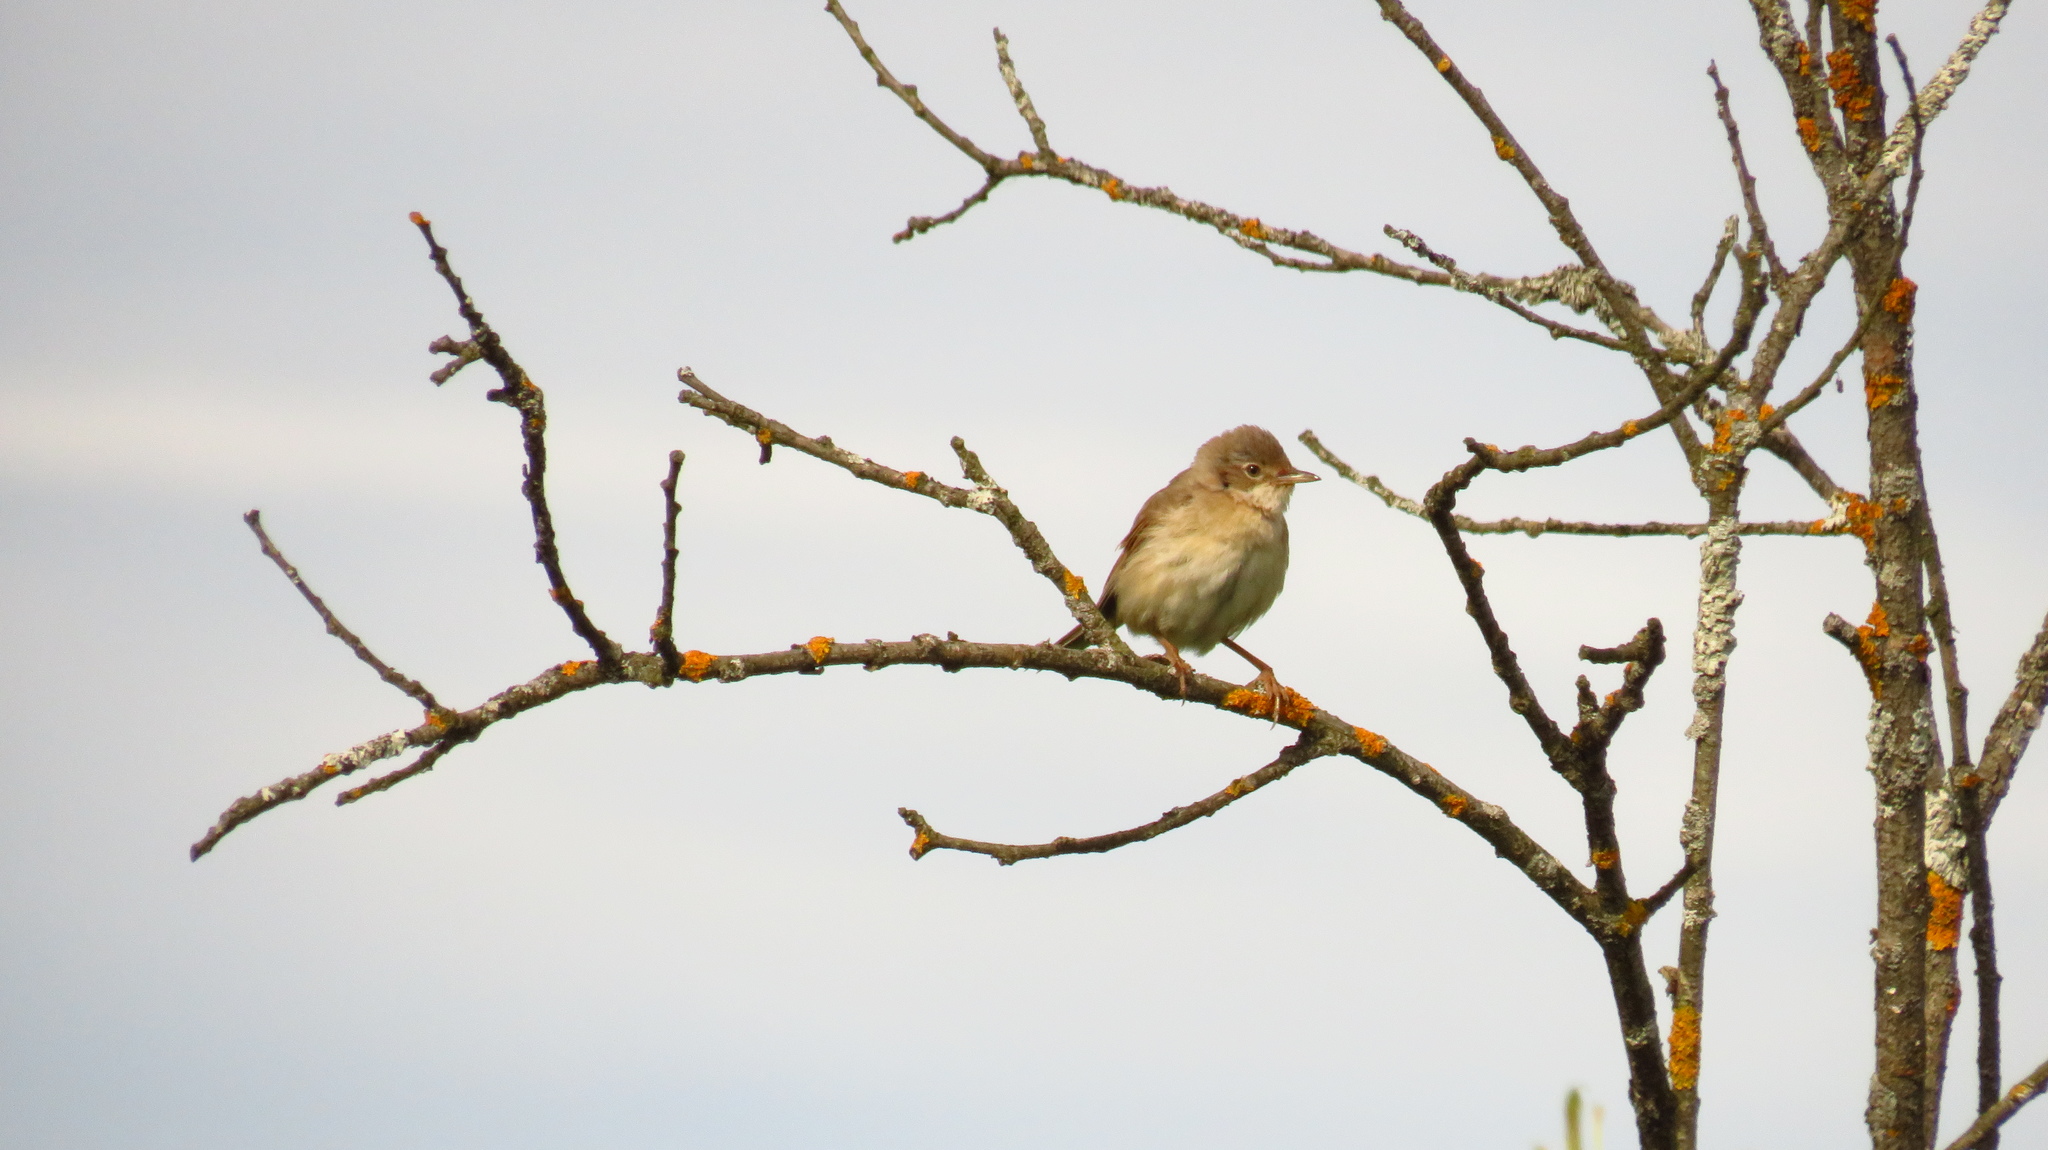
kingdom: Animalia
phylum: Chordata
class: Aves
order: Passeriformes
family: Sylviidae
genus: Sylvia
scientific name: Sylvia communis
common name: Common whitethroat
